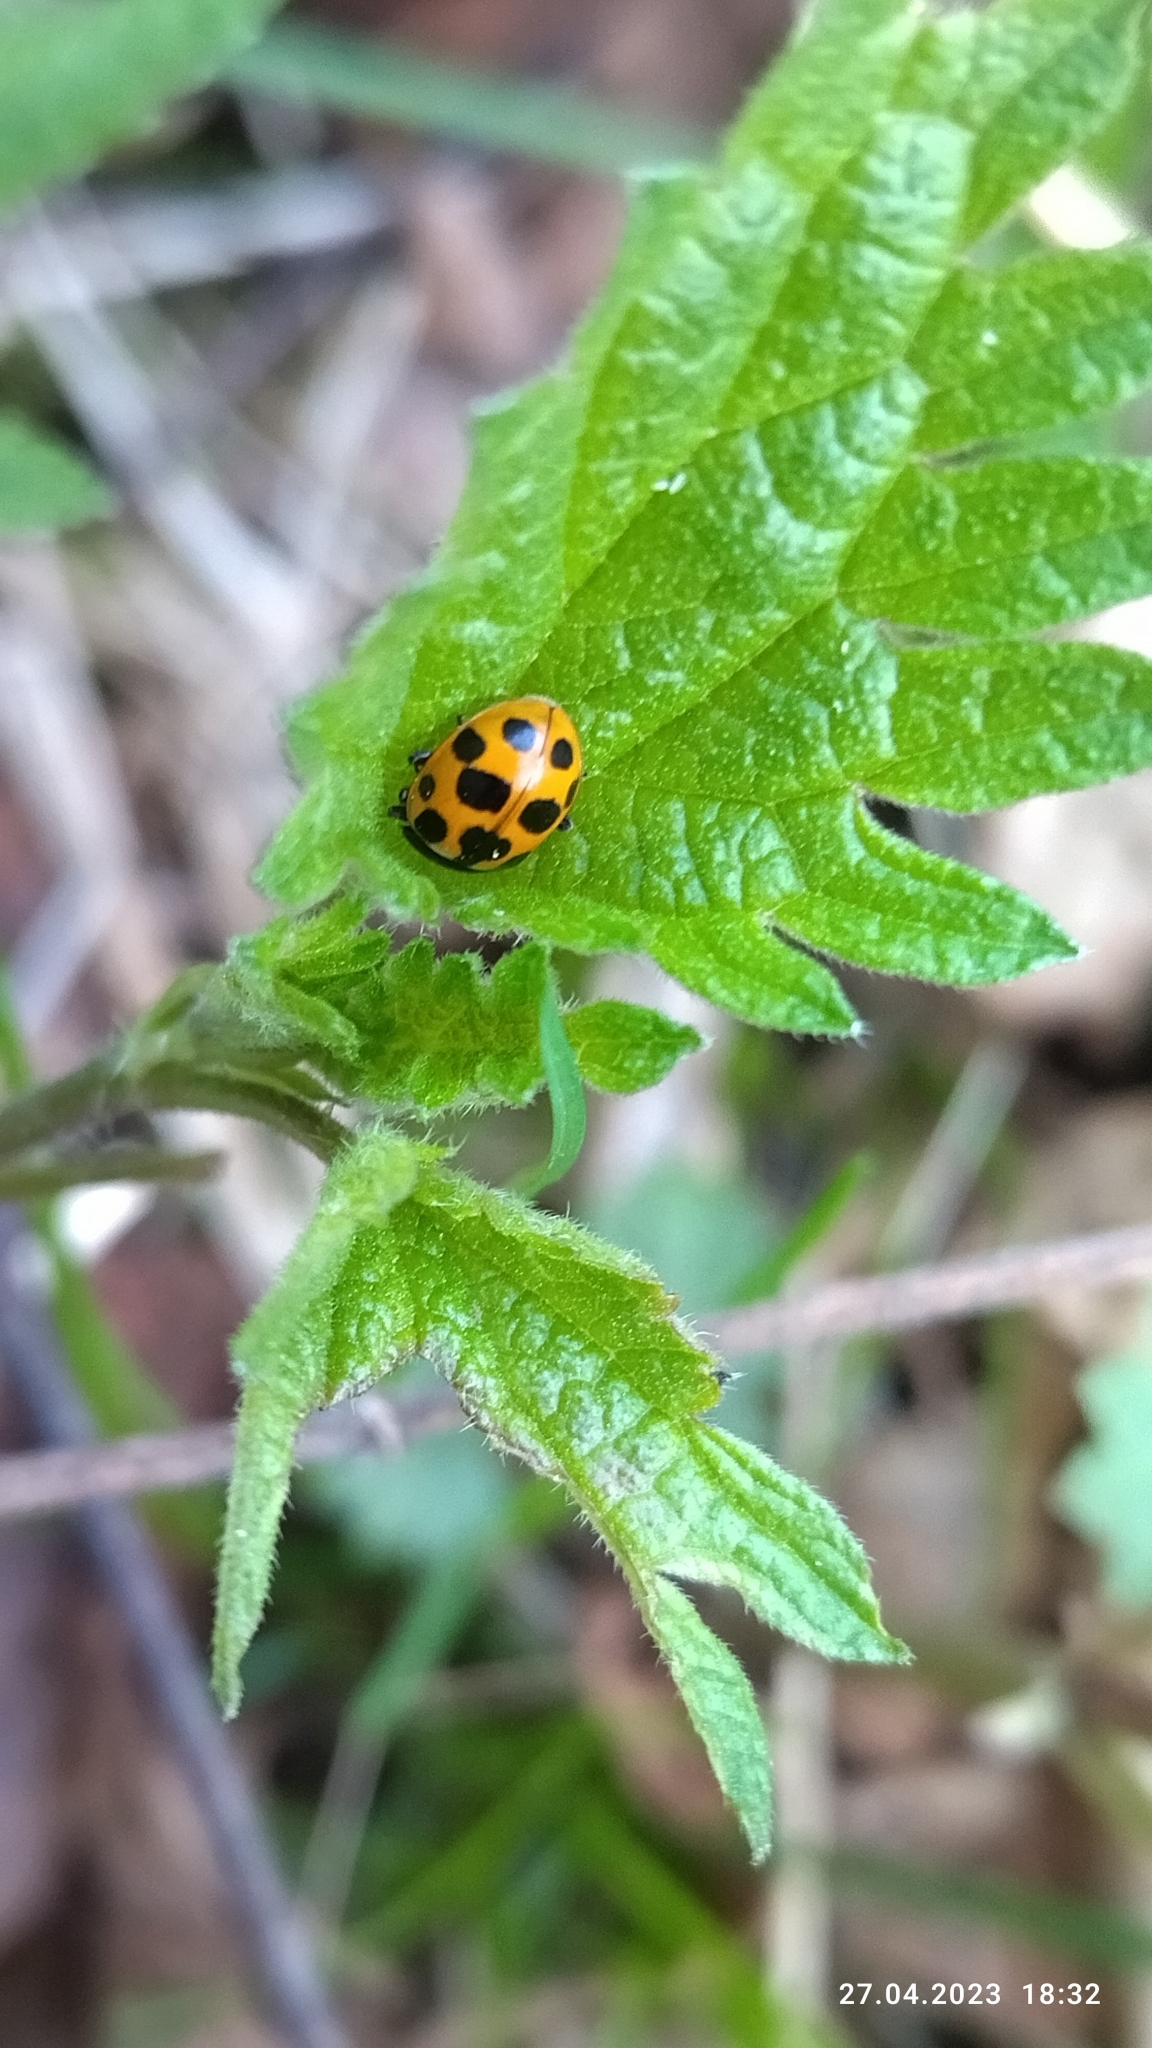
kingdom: Animalia
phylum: Arthropoda
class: Insecta
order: Coleoptera
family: Coccinellidae
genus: Ceratomegilla
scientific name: Ceratomegilla notata
